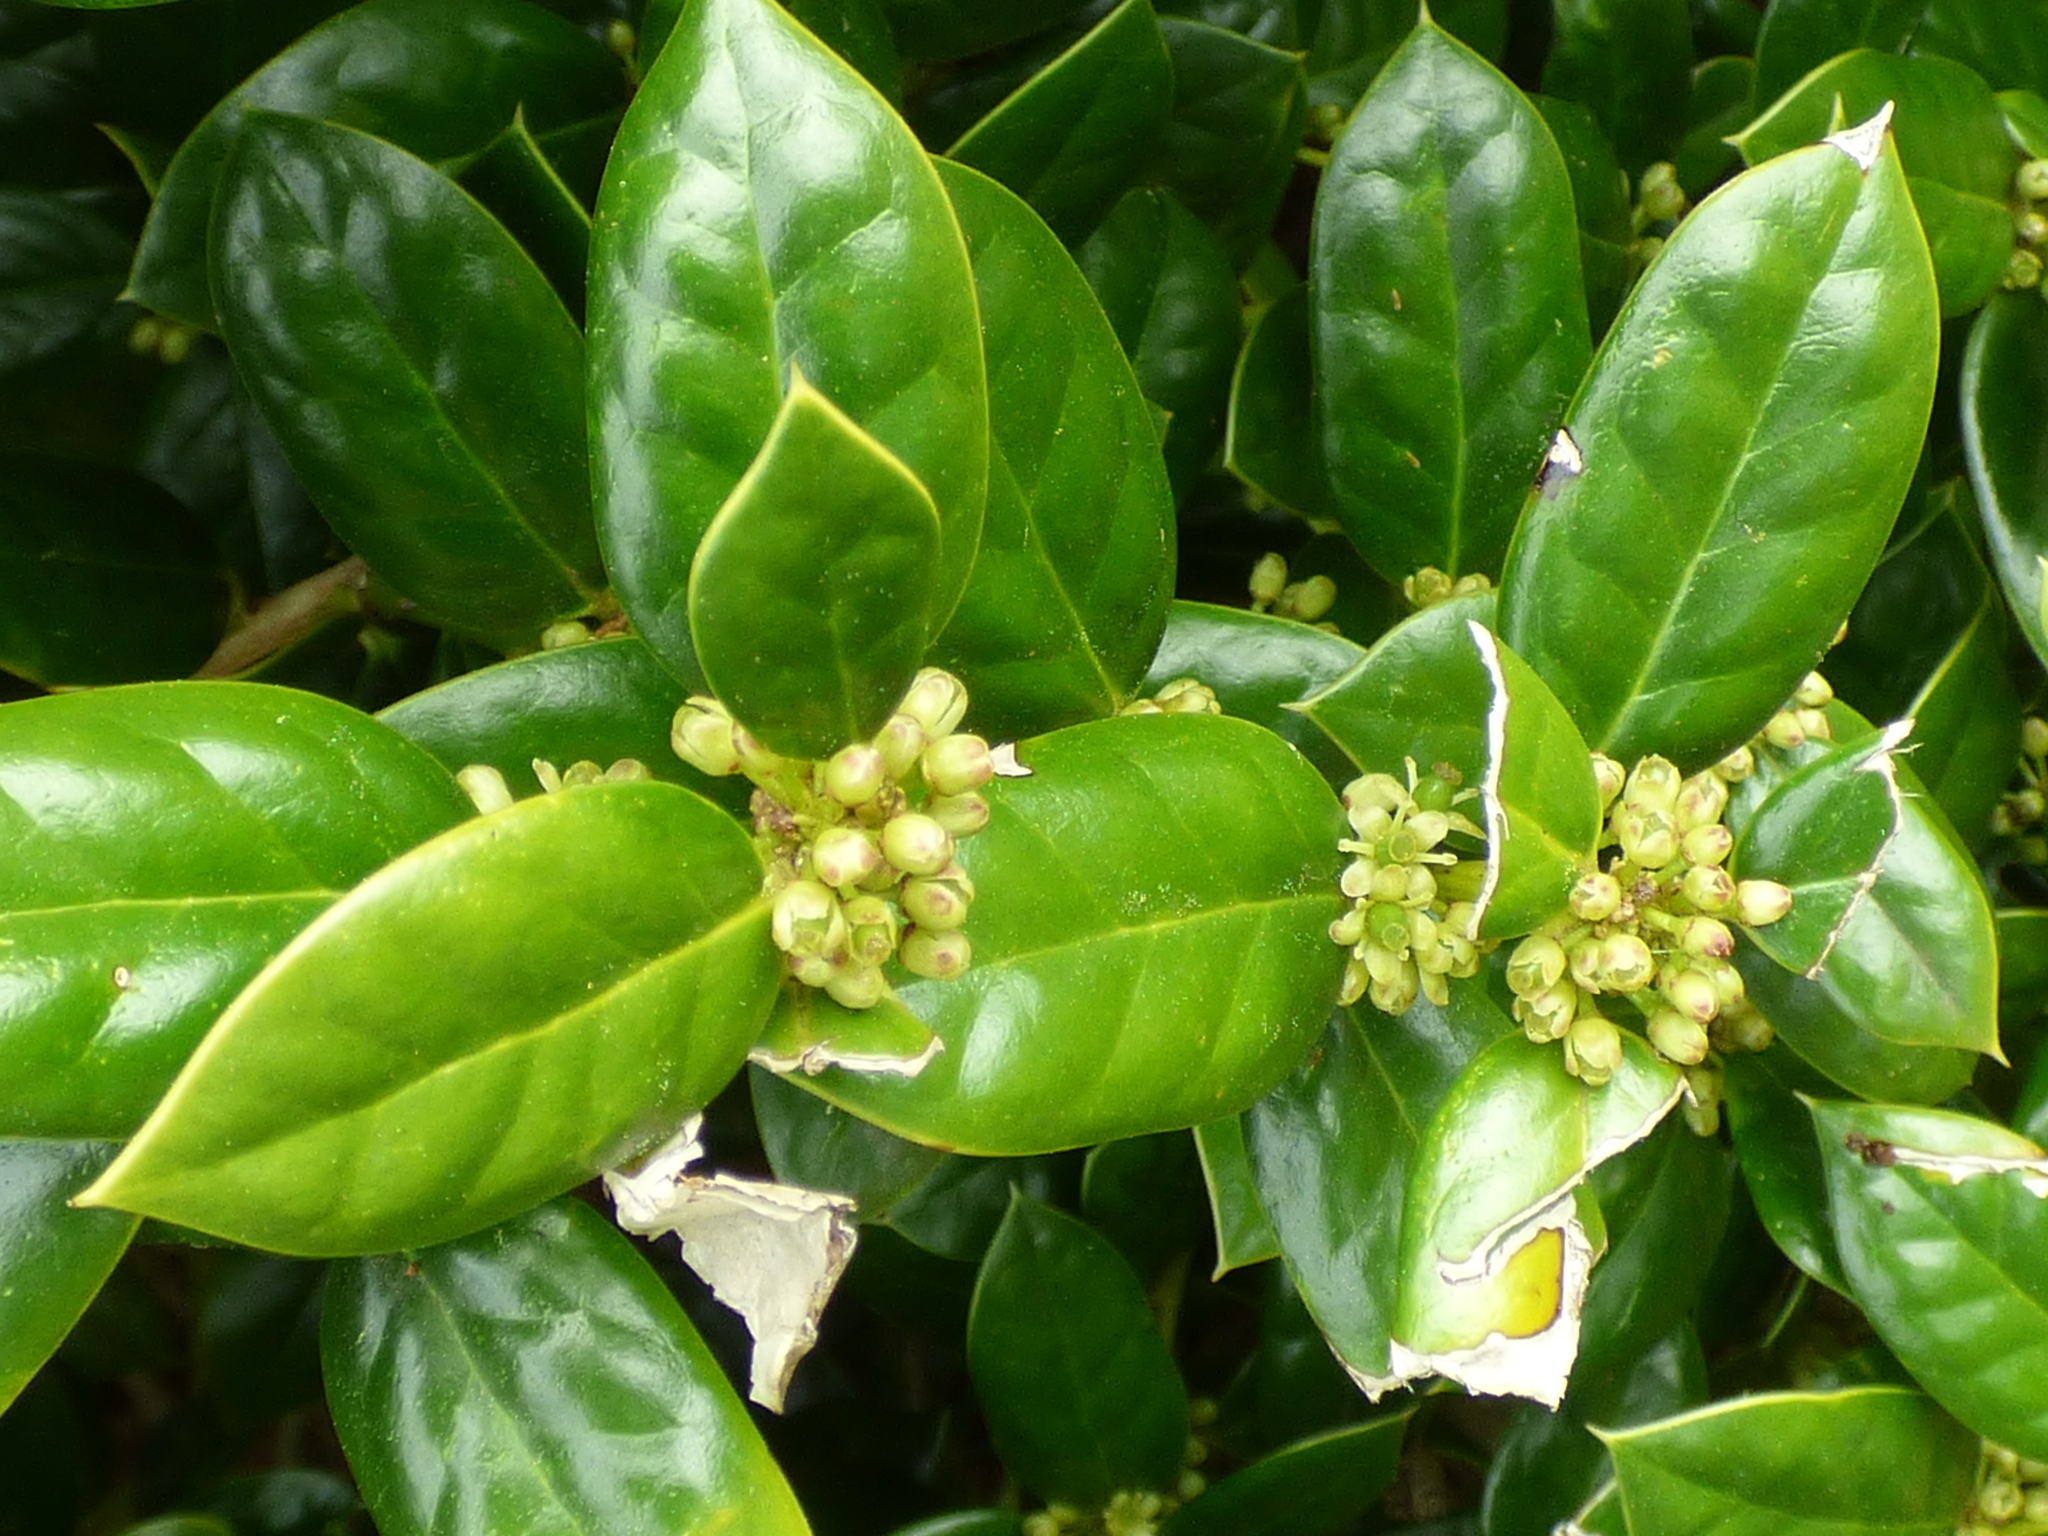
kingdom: Plantae
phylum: Tracheophyta
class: Magnoliopsida
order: Aquifoliales
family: Aquifoliaceae
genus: Ilex
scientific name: Ilex cornuta
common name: Chinese holly
